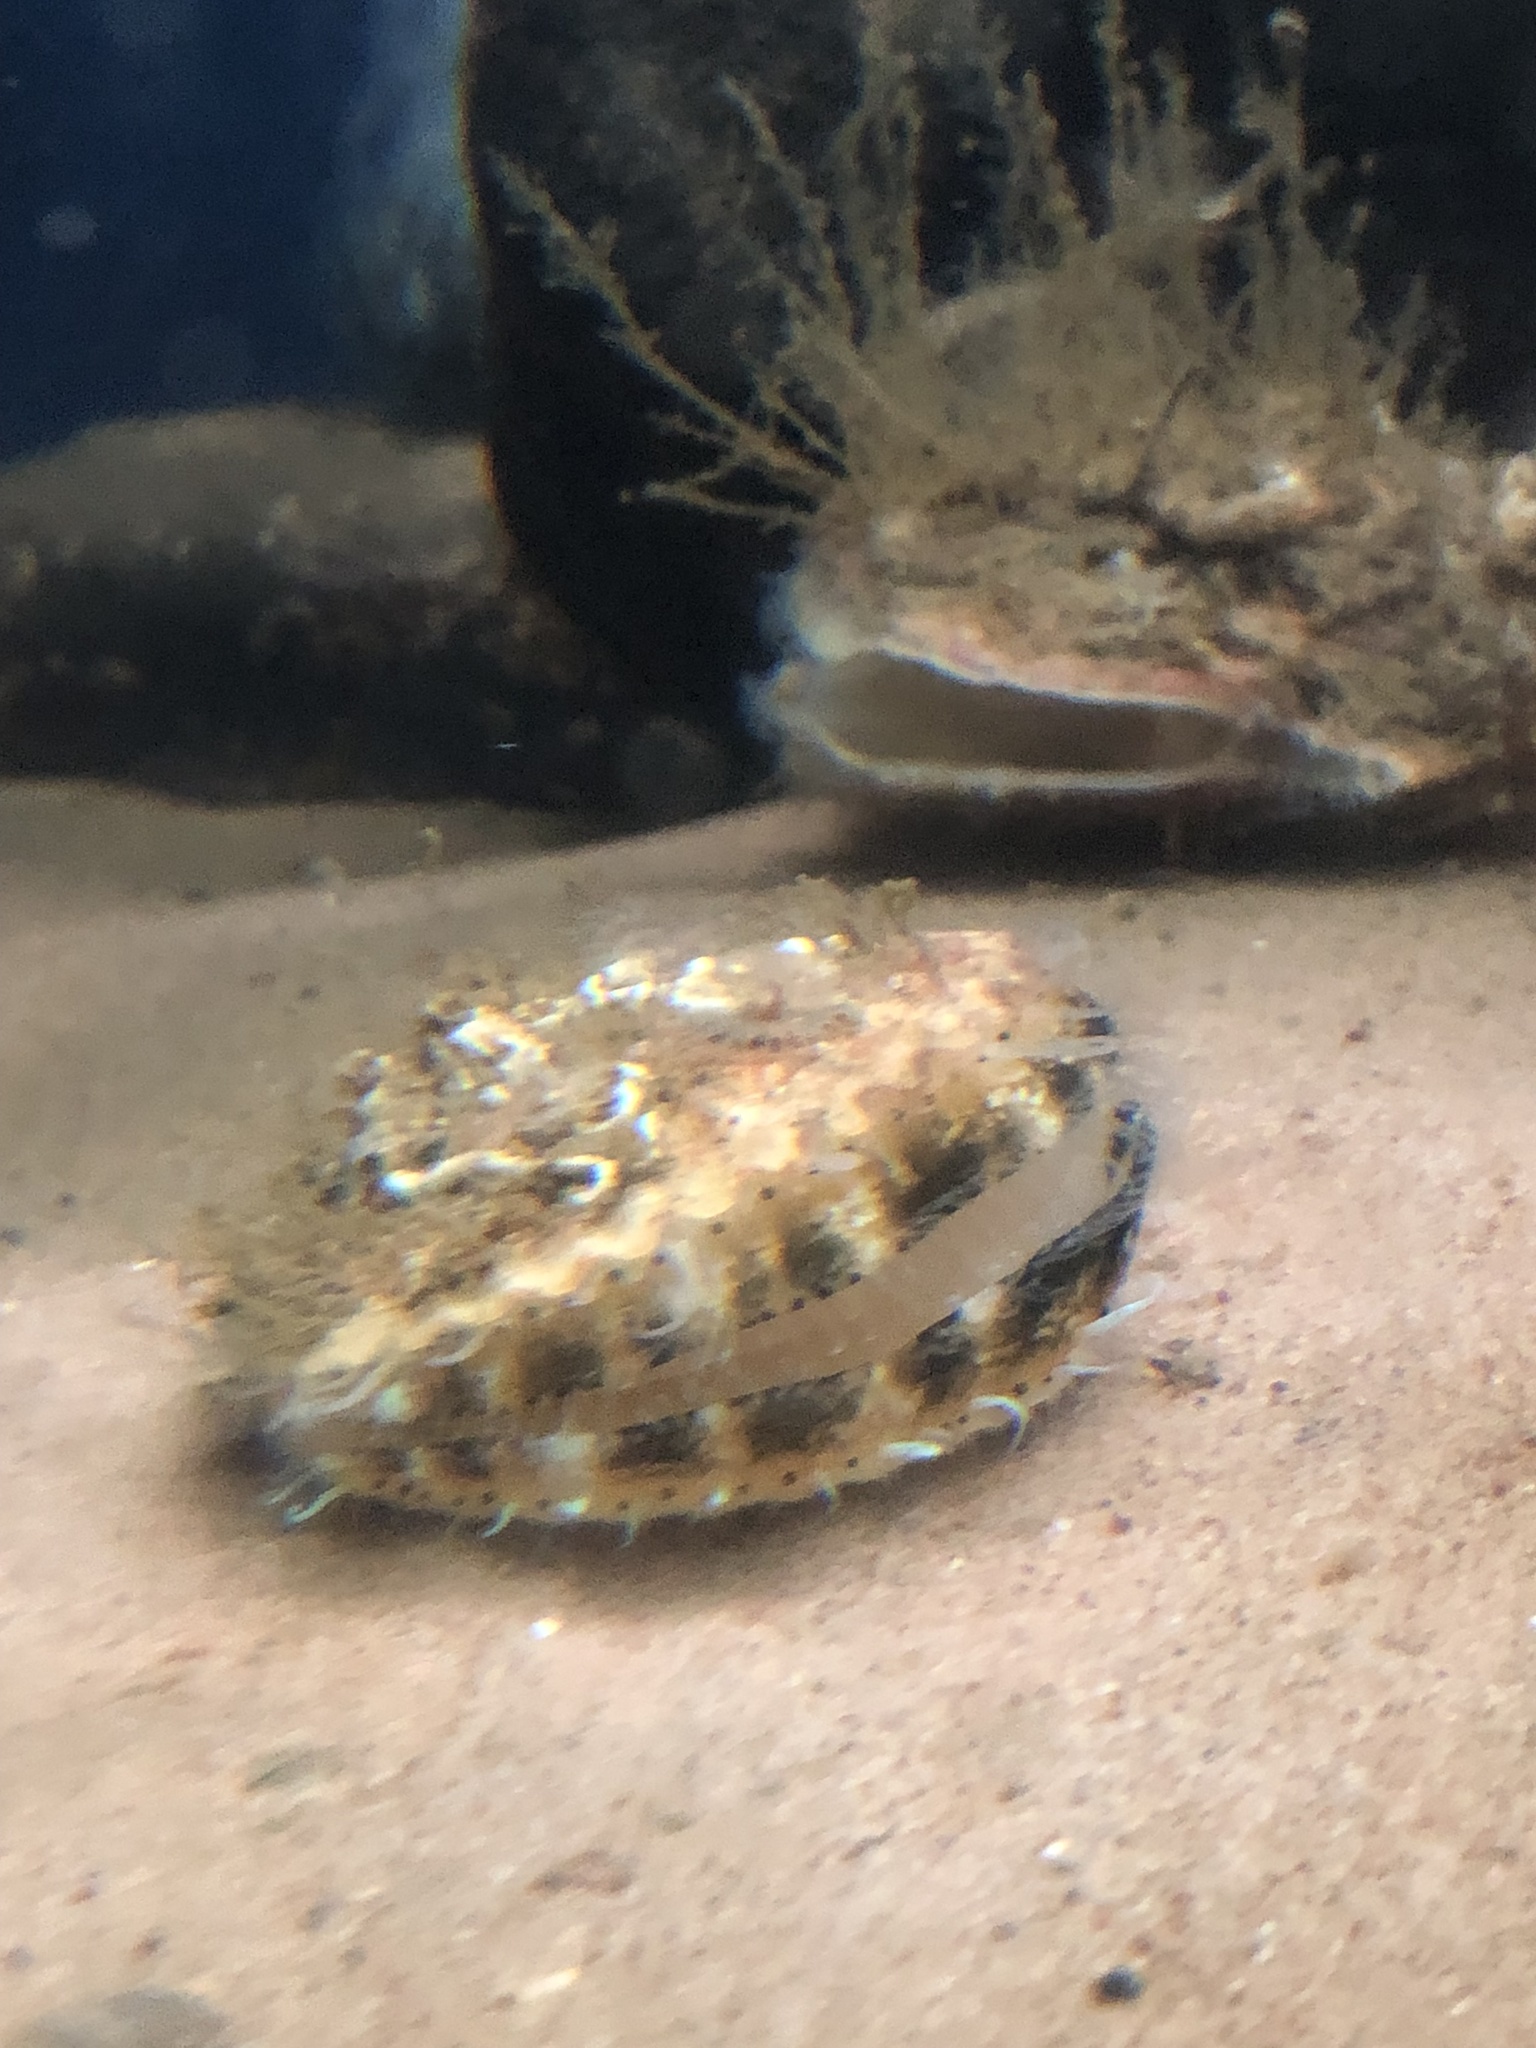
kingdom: Animalia
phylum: Mollusca
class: Bivalvia
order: Pectinida
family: Pectinidae
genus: Aequipecten
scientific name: Aequipecten opercularis
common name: Queen scallop
